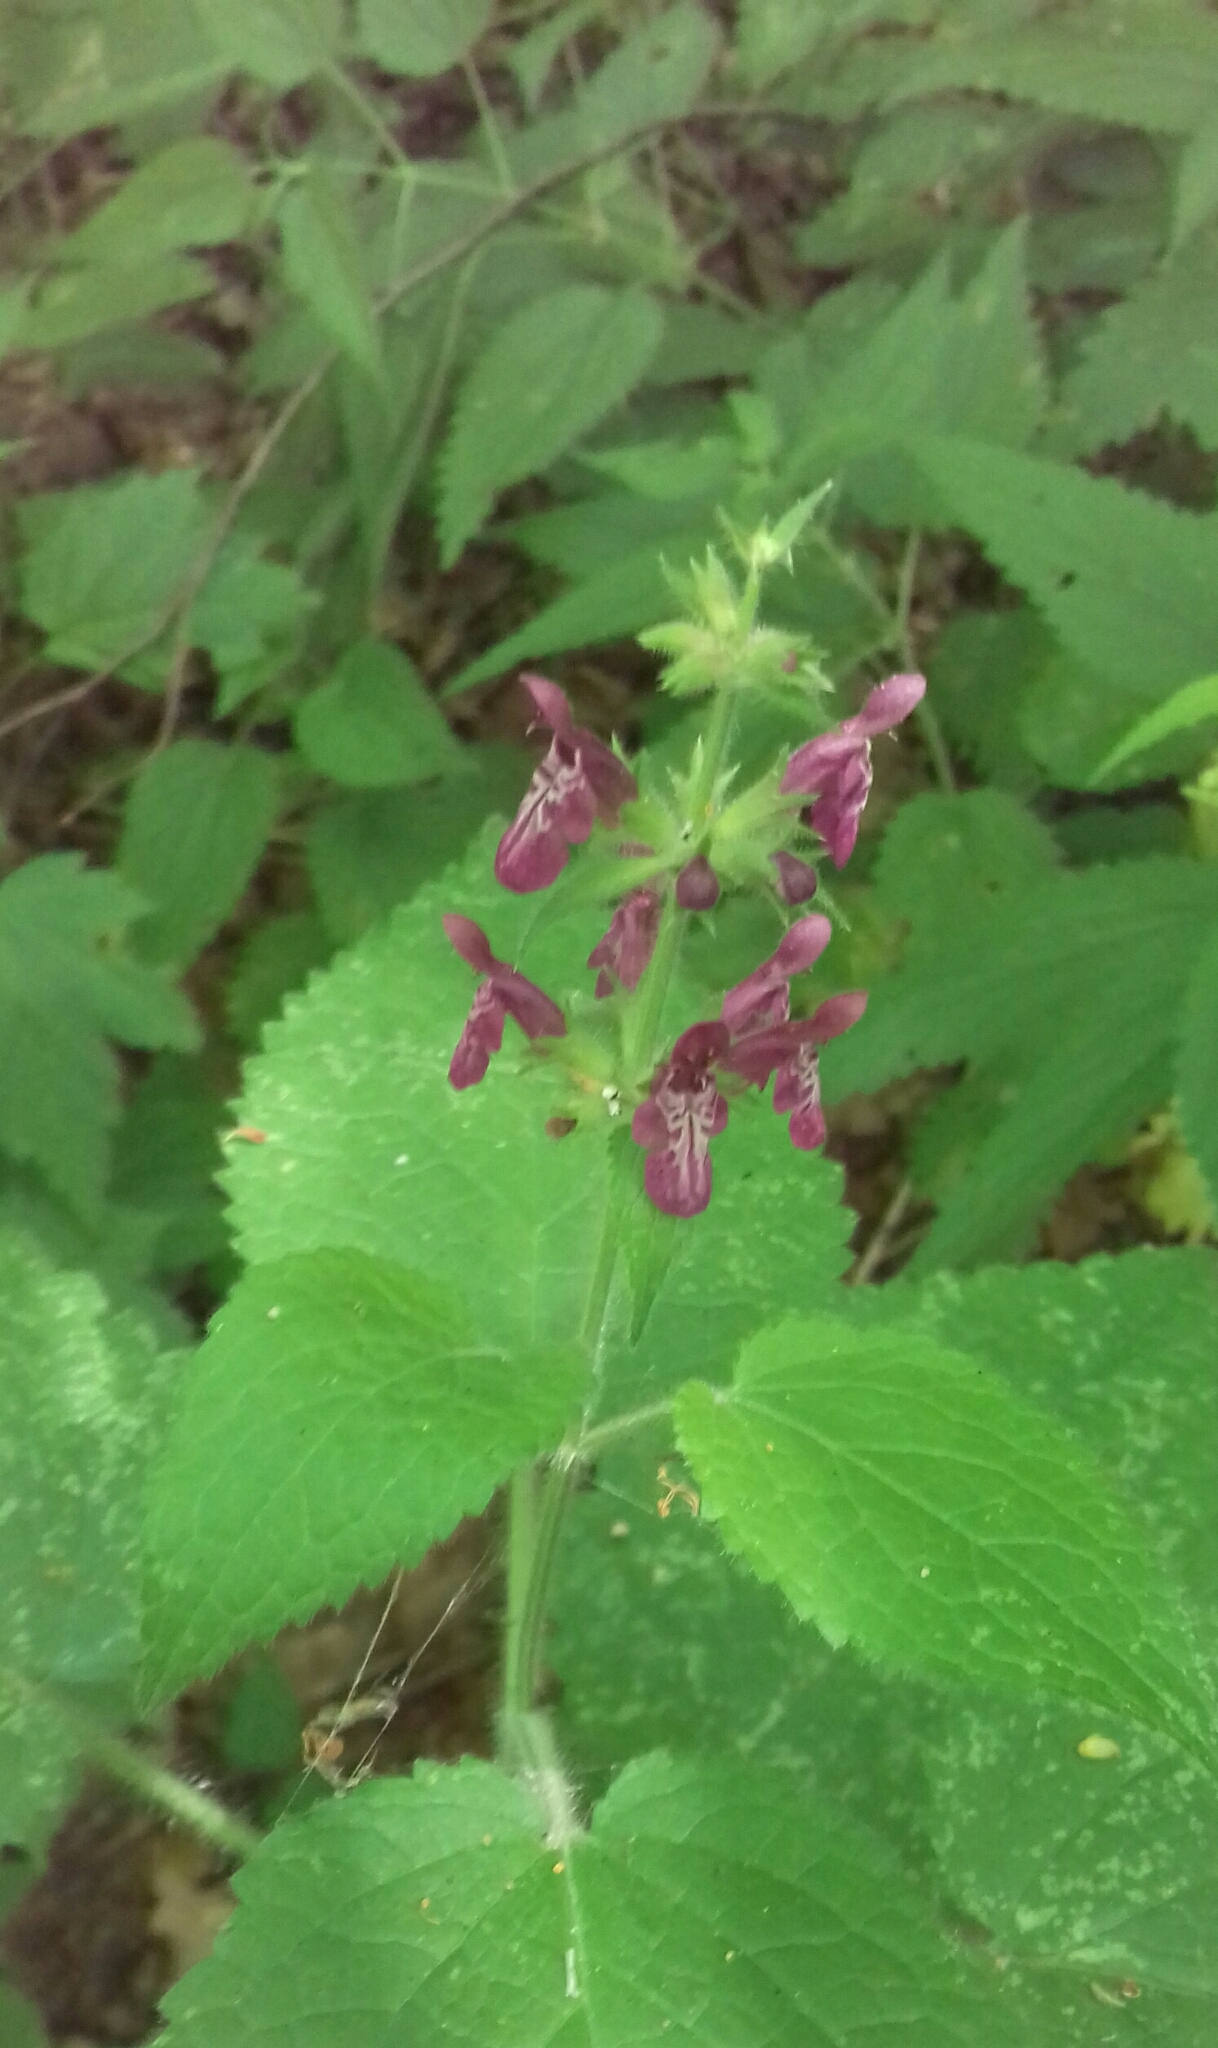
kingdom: Plantae
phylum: Tracheophyta
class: Magnoliopsida
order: Lamiales
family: Lamiaceae
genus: Stachys
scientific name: Stachys sylvatica
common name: Hedge woundwort
